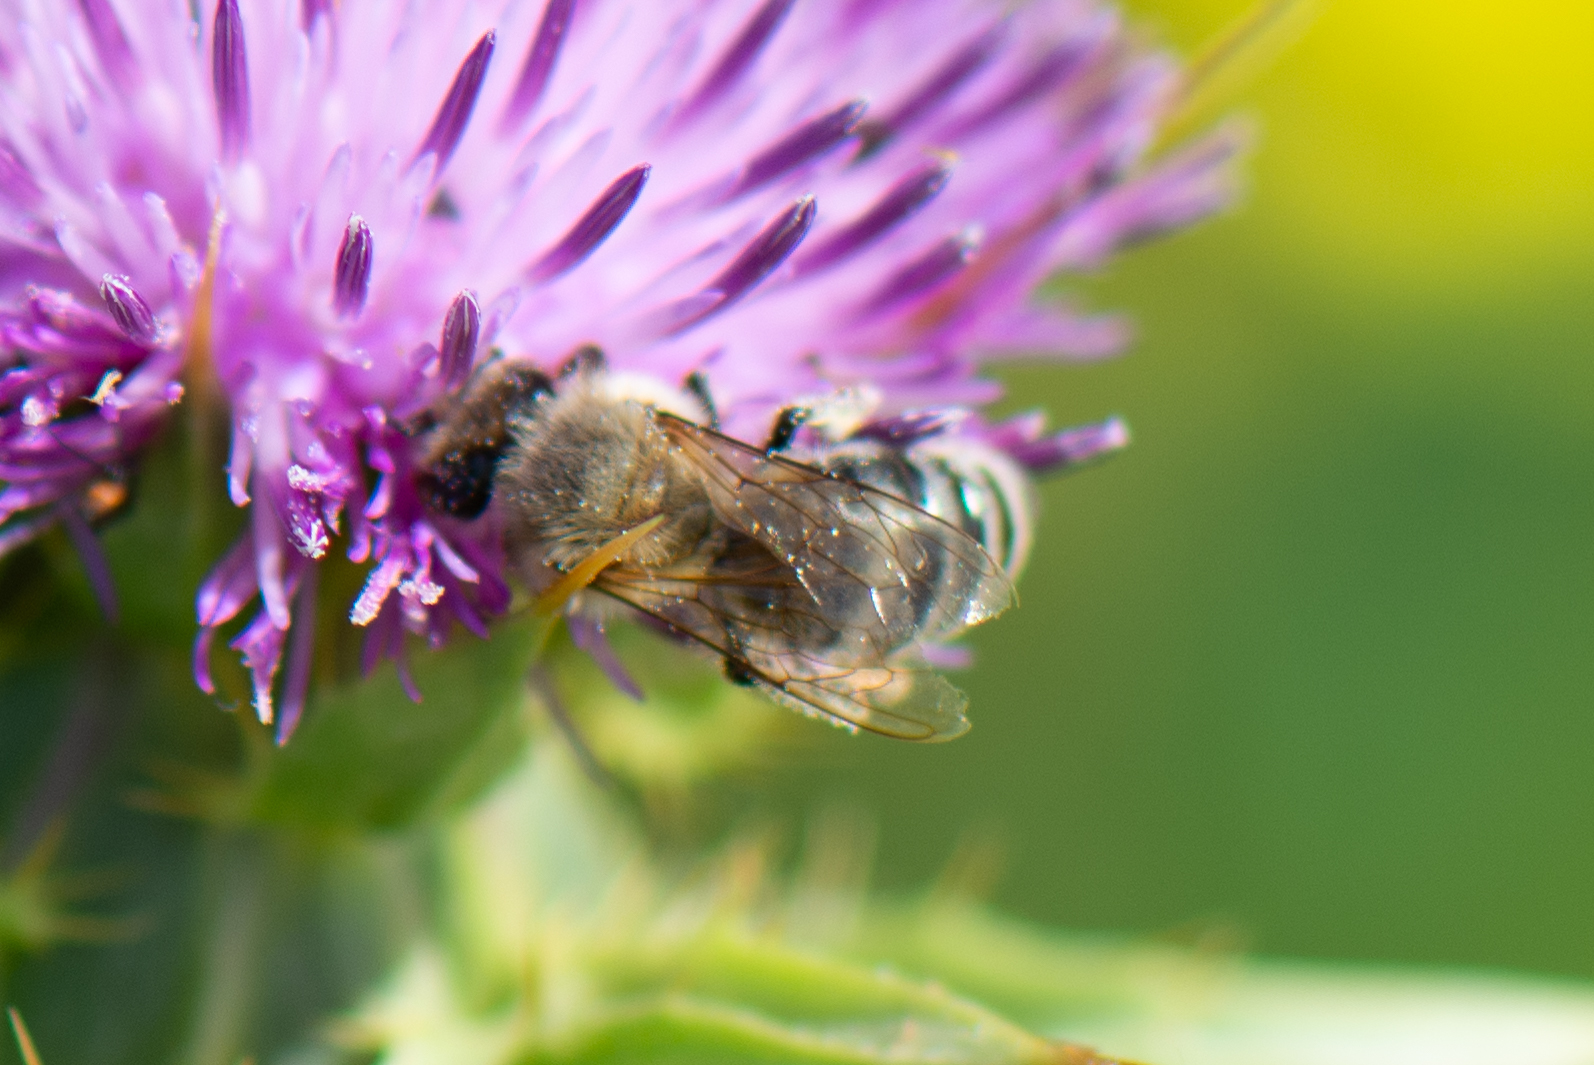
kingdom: Animalia
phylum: Arthropoda
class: Insecta
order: Hymenoptera
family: Apidae
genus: Apis
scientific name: Apis mellifera
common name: Honey bee
